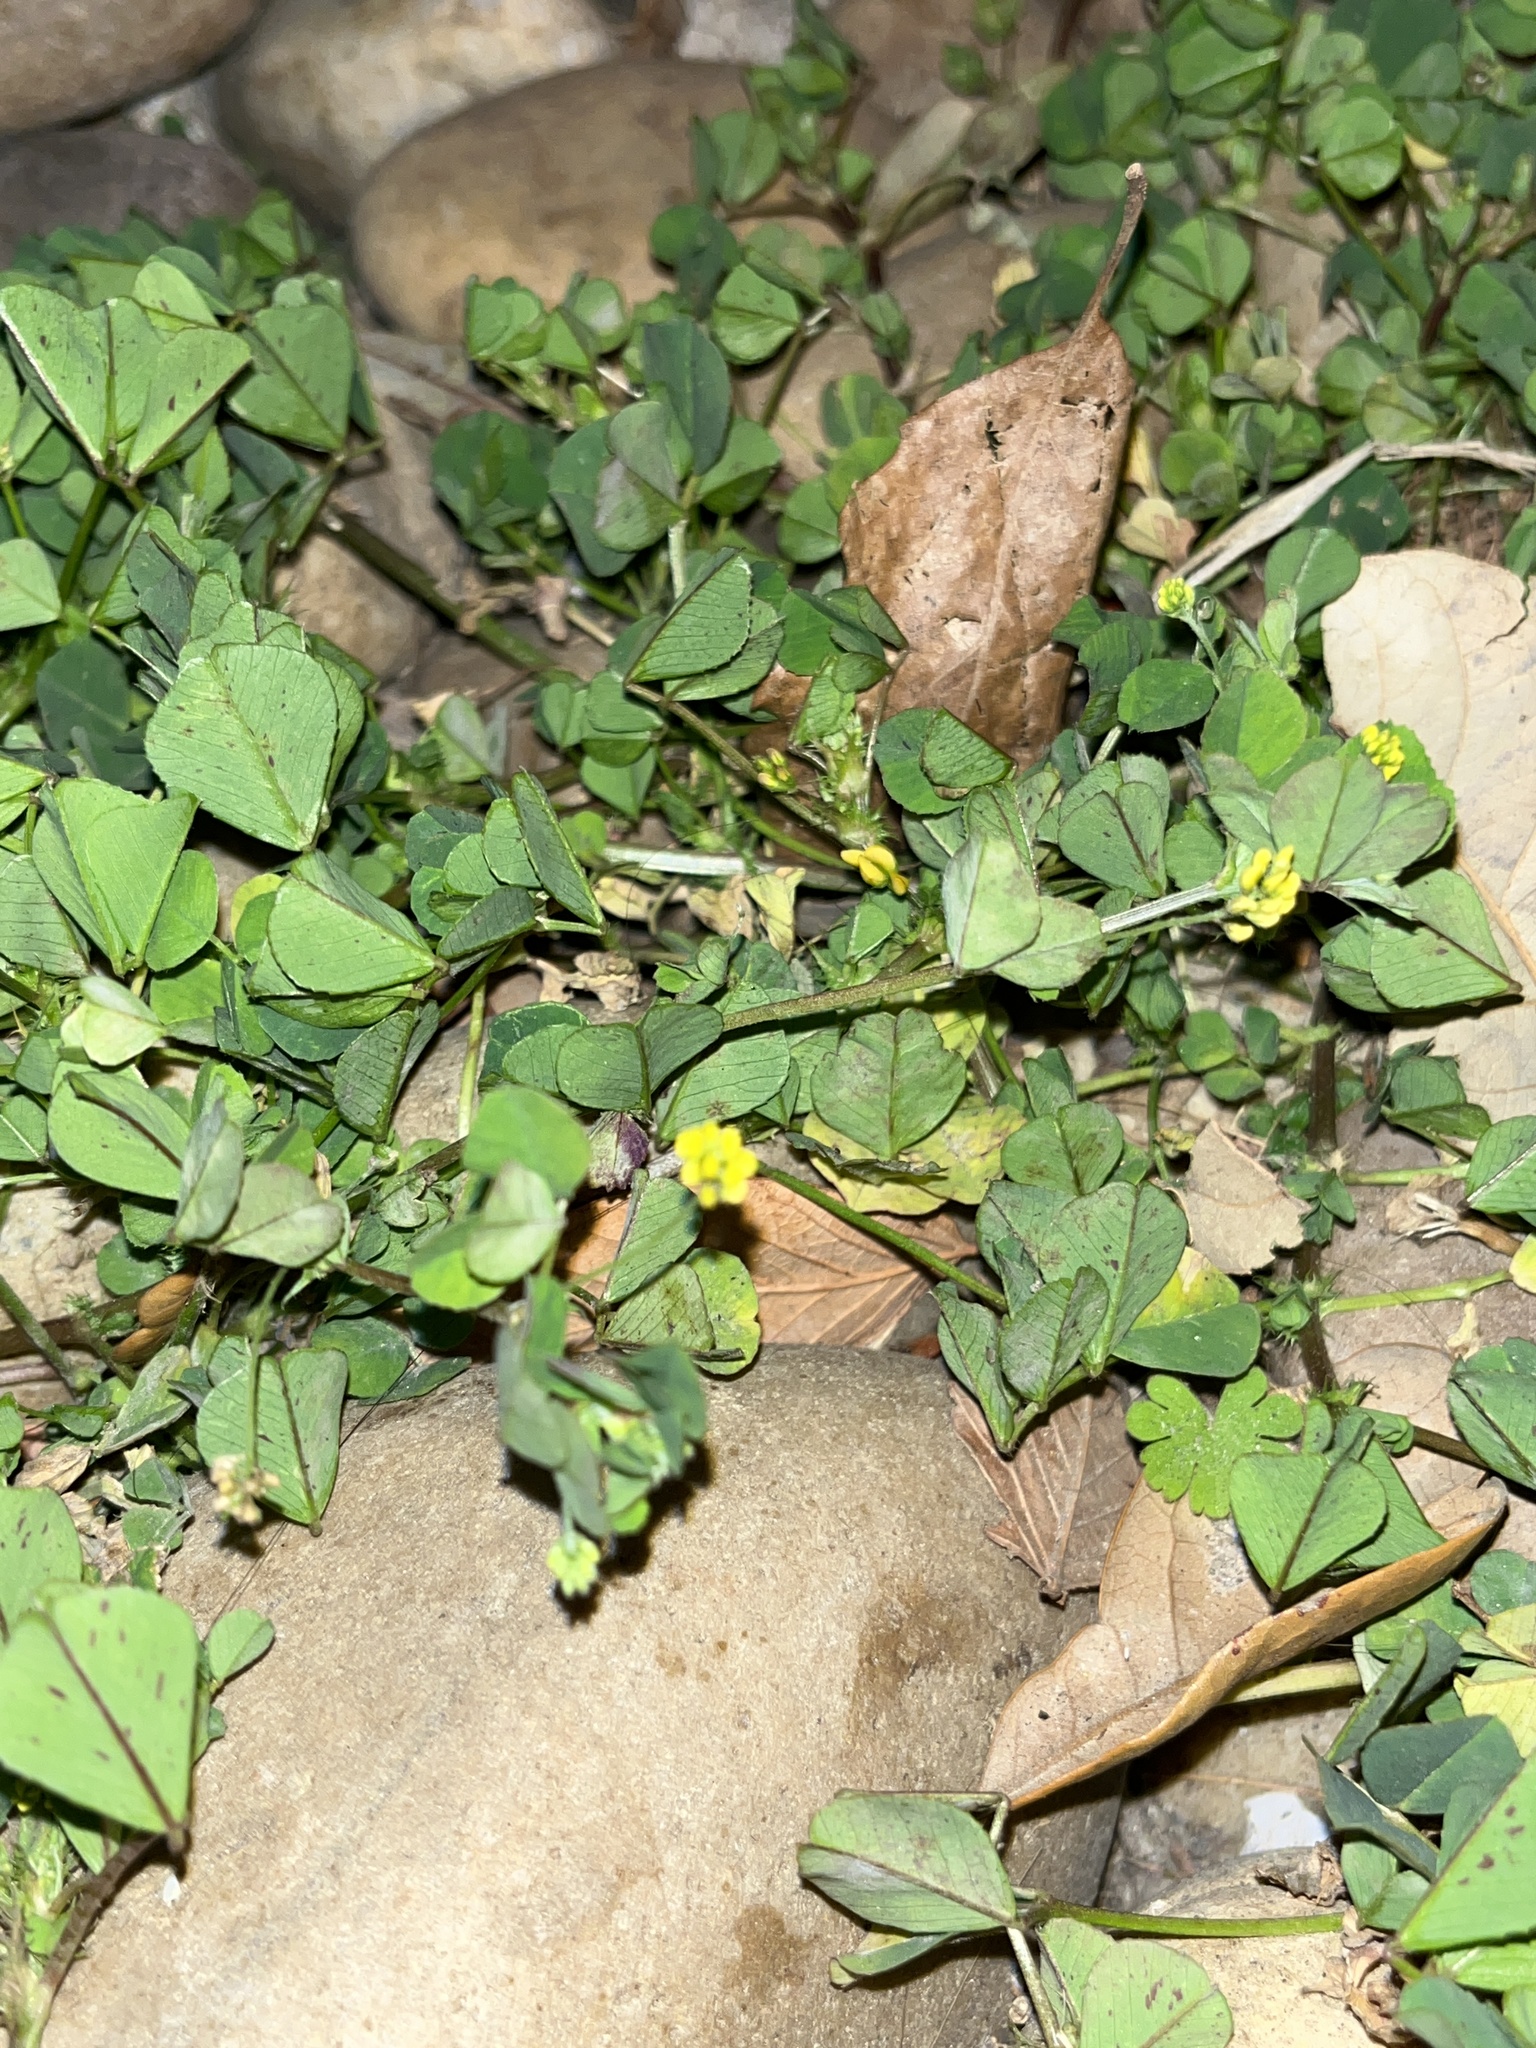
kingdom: Plantae
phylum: Tracheophyta
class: Magnoliopsida
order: Fabales
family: Fabaceae
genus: Medicago
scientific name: Medicago lupulina
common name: Black medick
